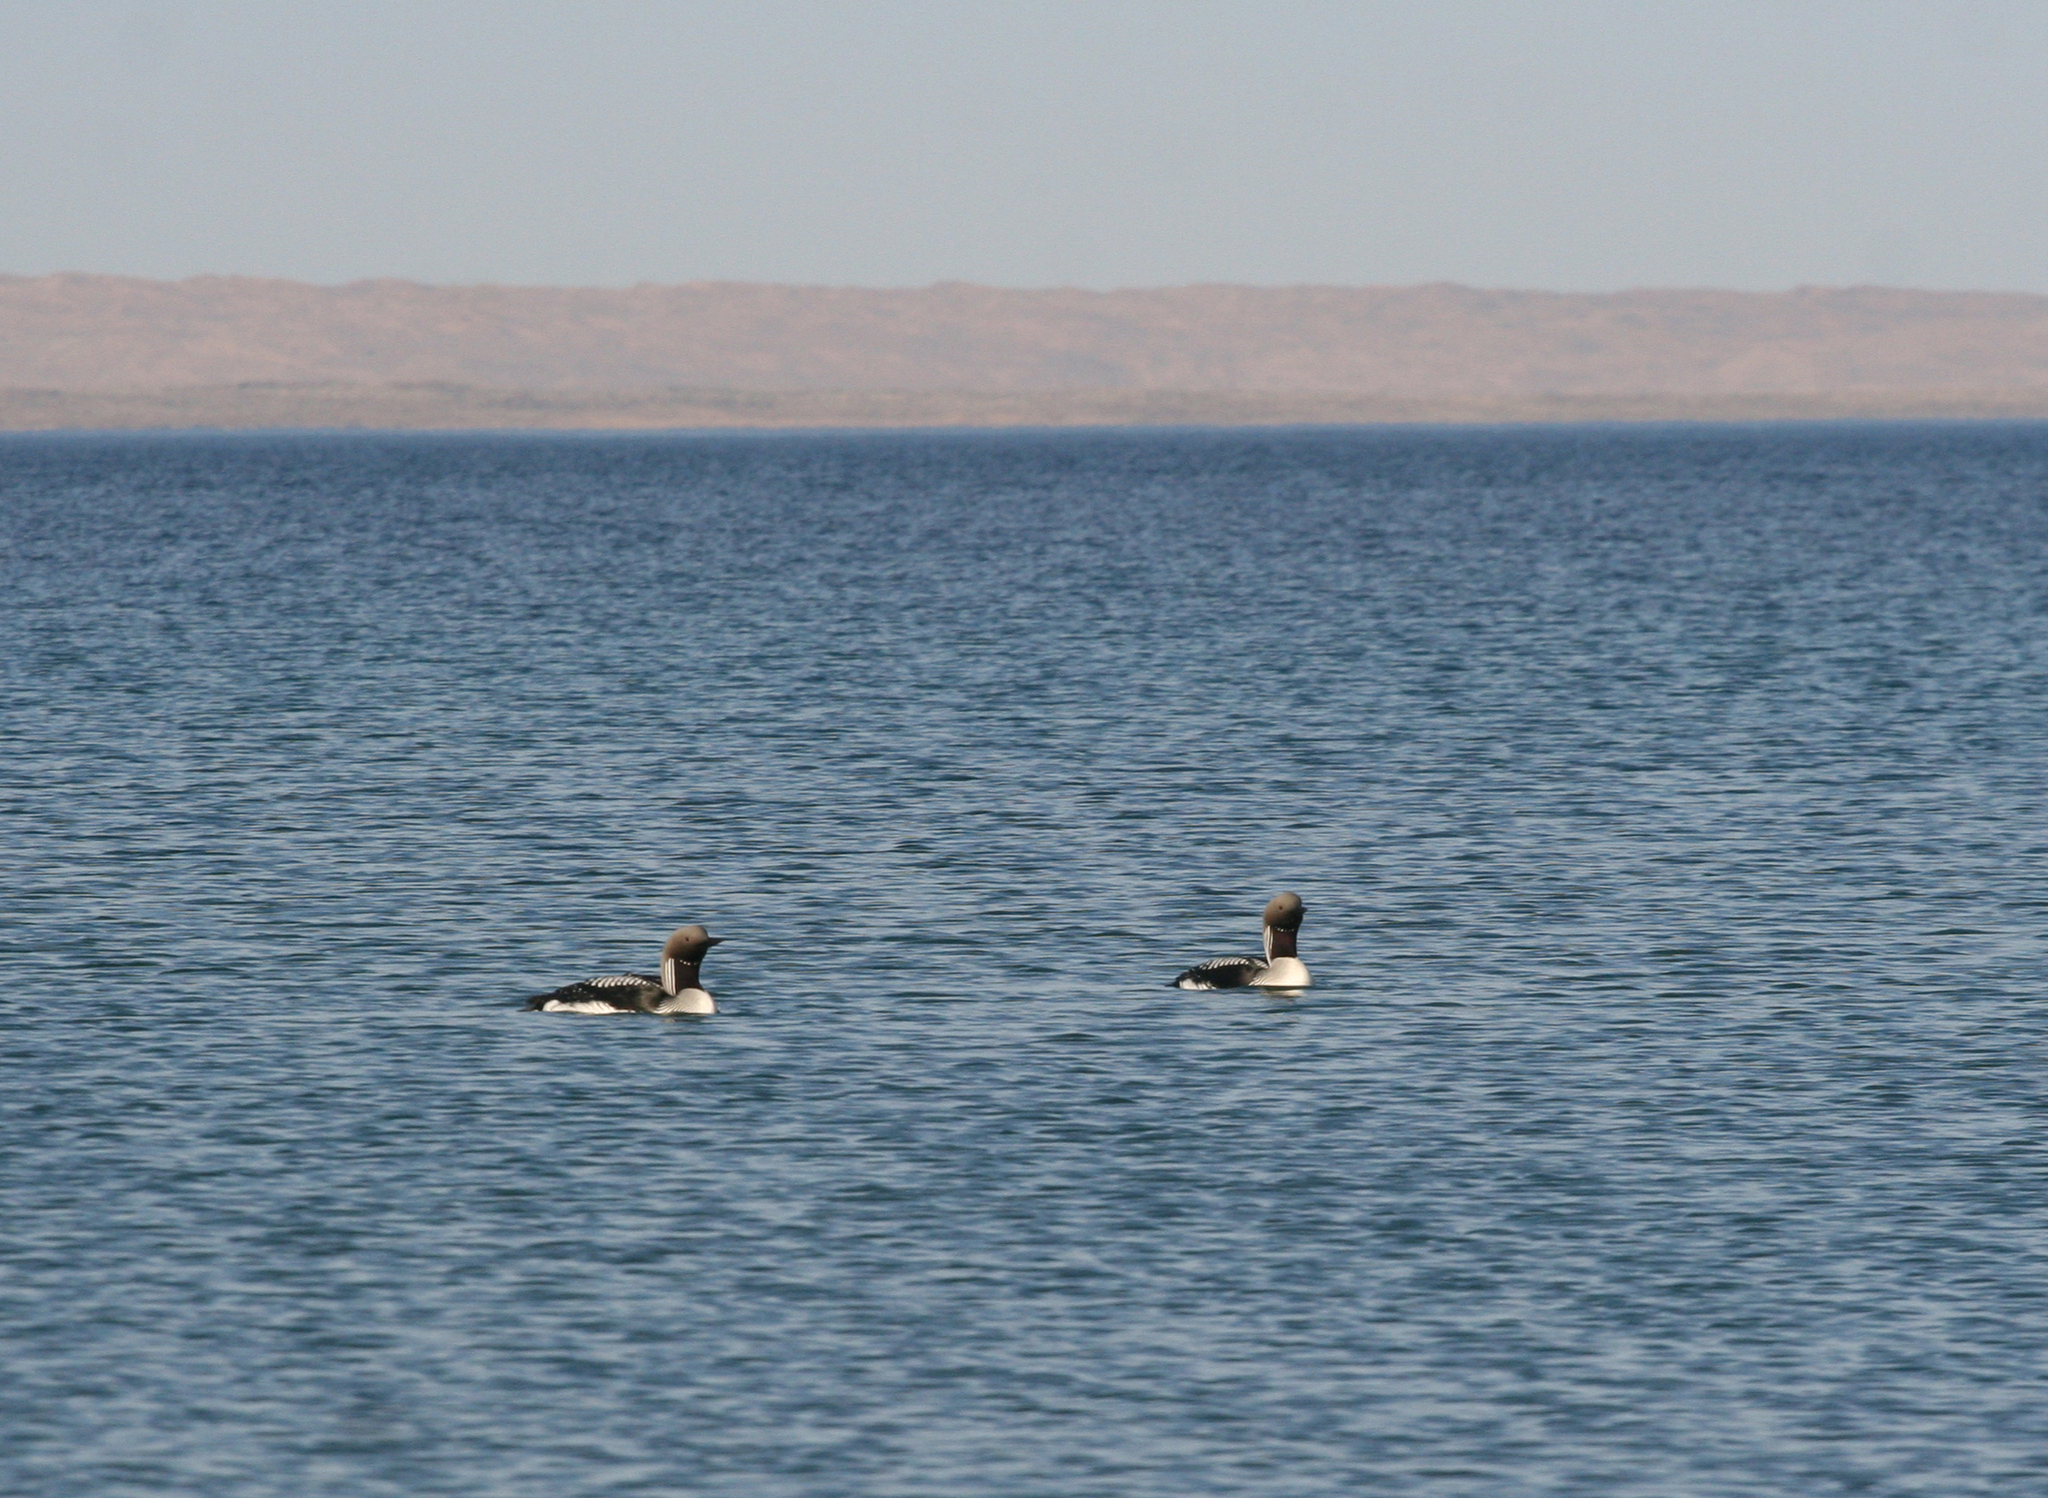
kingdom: Animalia
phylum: Chordata
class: Aves
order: Gaviiformes
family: Gaviidae
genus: Gavia
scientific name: Gavia arctica
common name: Black-throated loon
